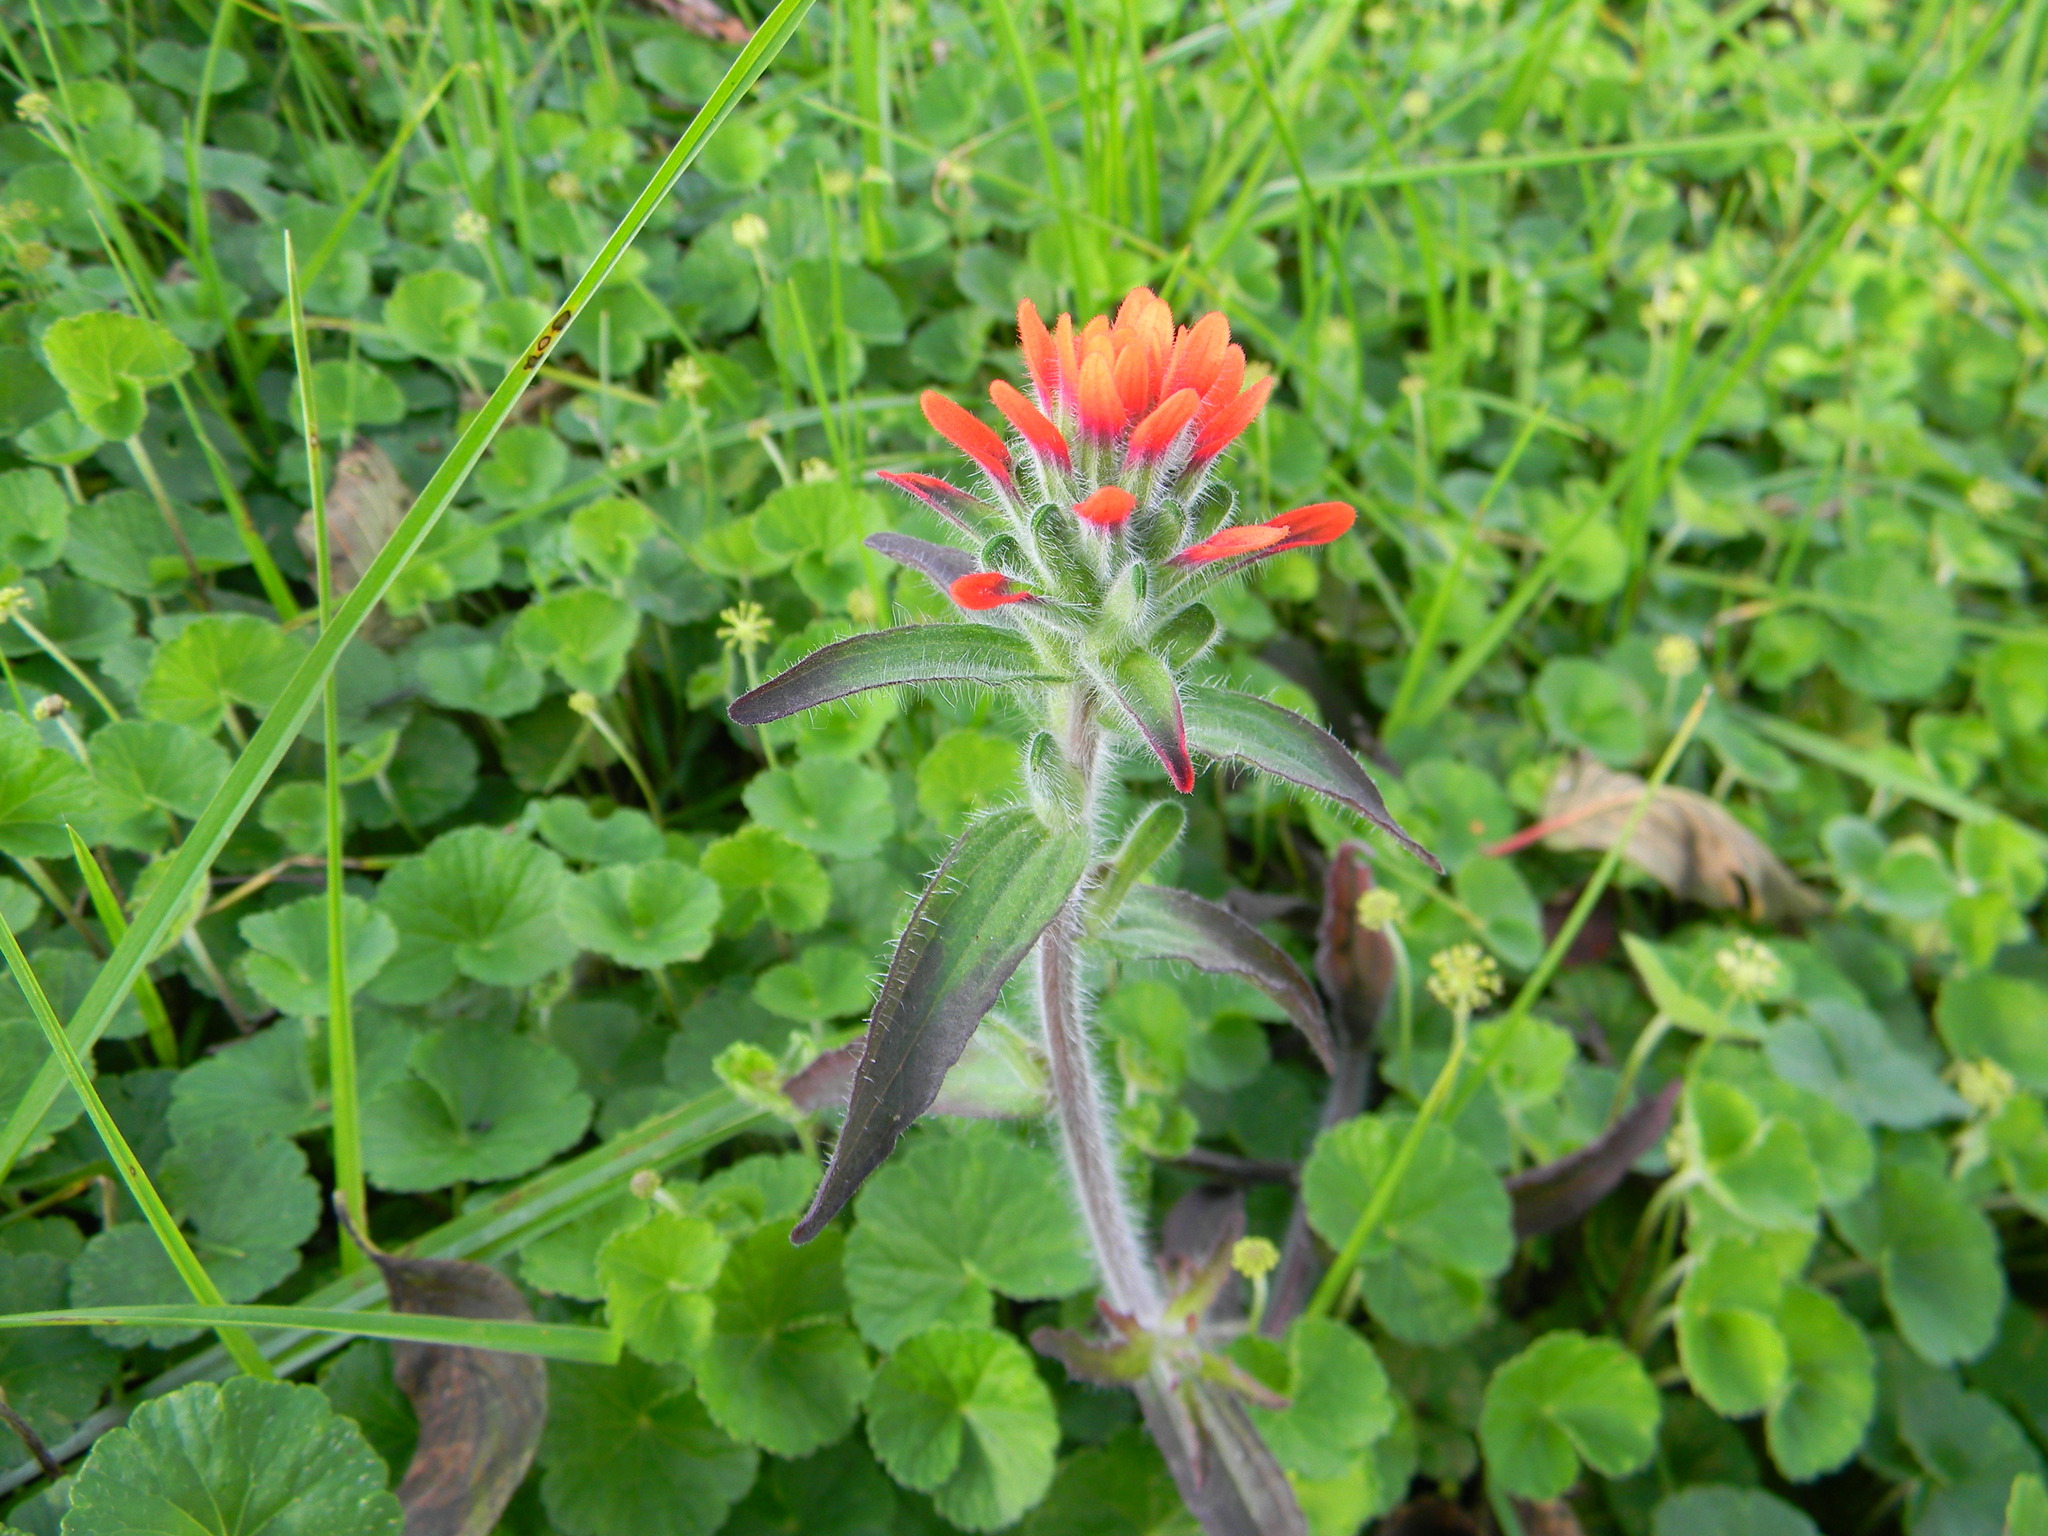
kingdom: Plantae
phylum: Tracheophyta
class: Magnoliopsida
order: Lamiales
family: Orobanchaceae
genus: Castilleja
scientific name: Castilleja arvensis
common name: Indian paintbrush
